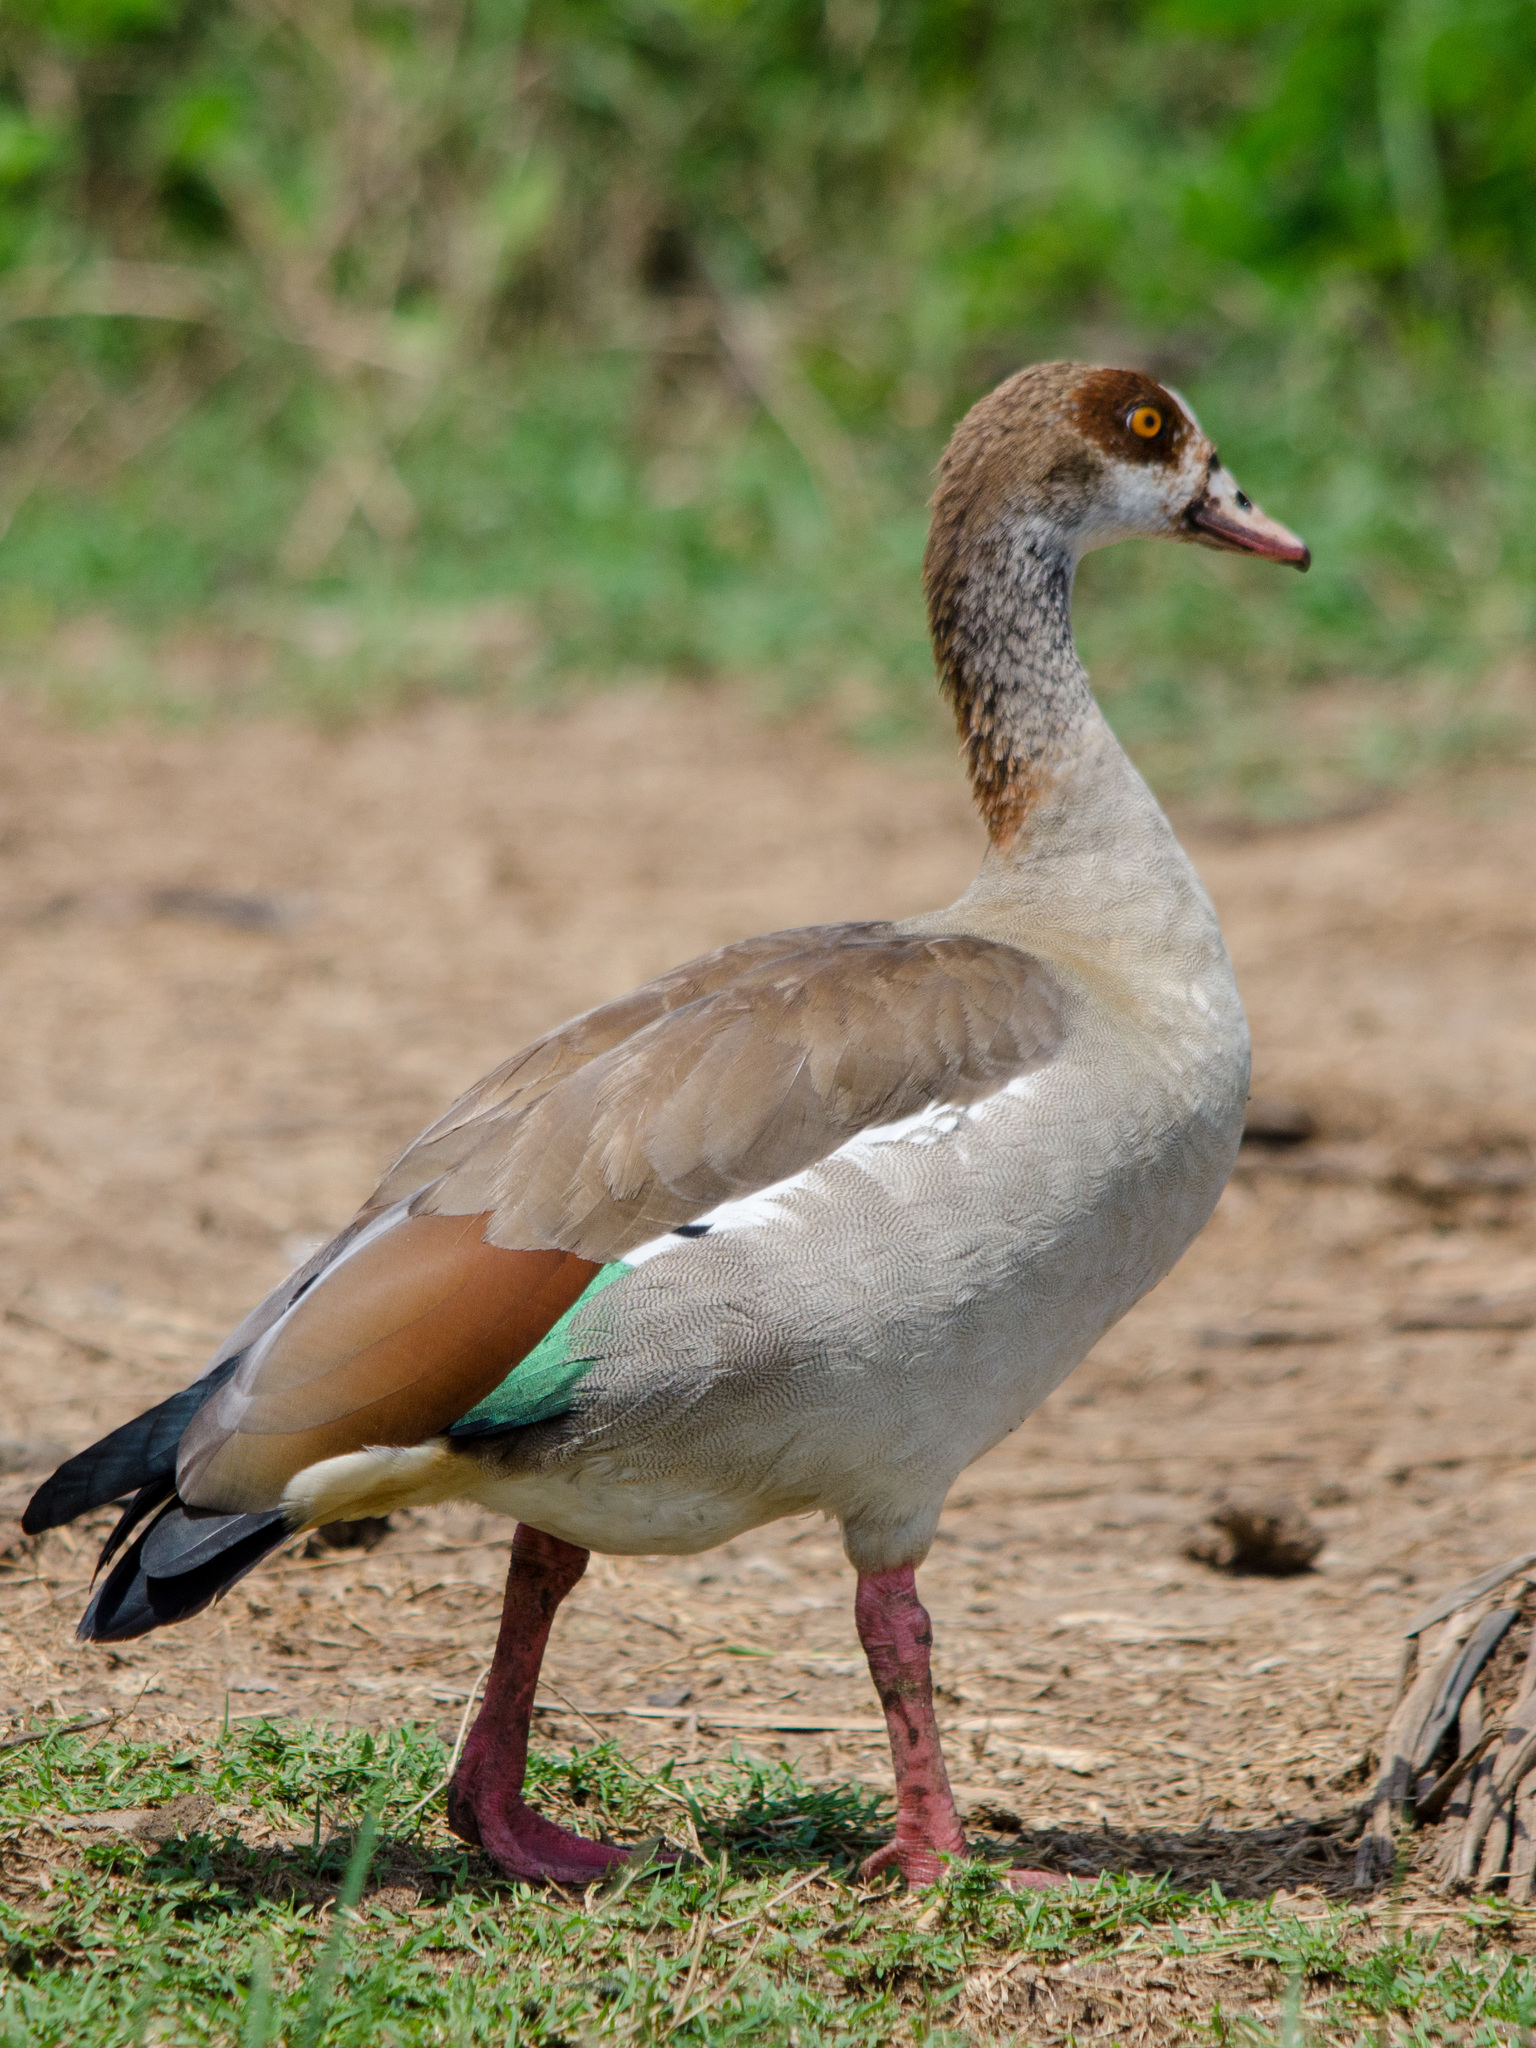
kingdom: Animalia
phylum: Chordata
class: Aves
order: Anseriformes
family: Anatidae
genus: Alopochen
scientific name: Alopochen aegyptiaca
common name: Egyptian goose
